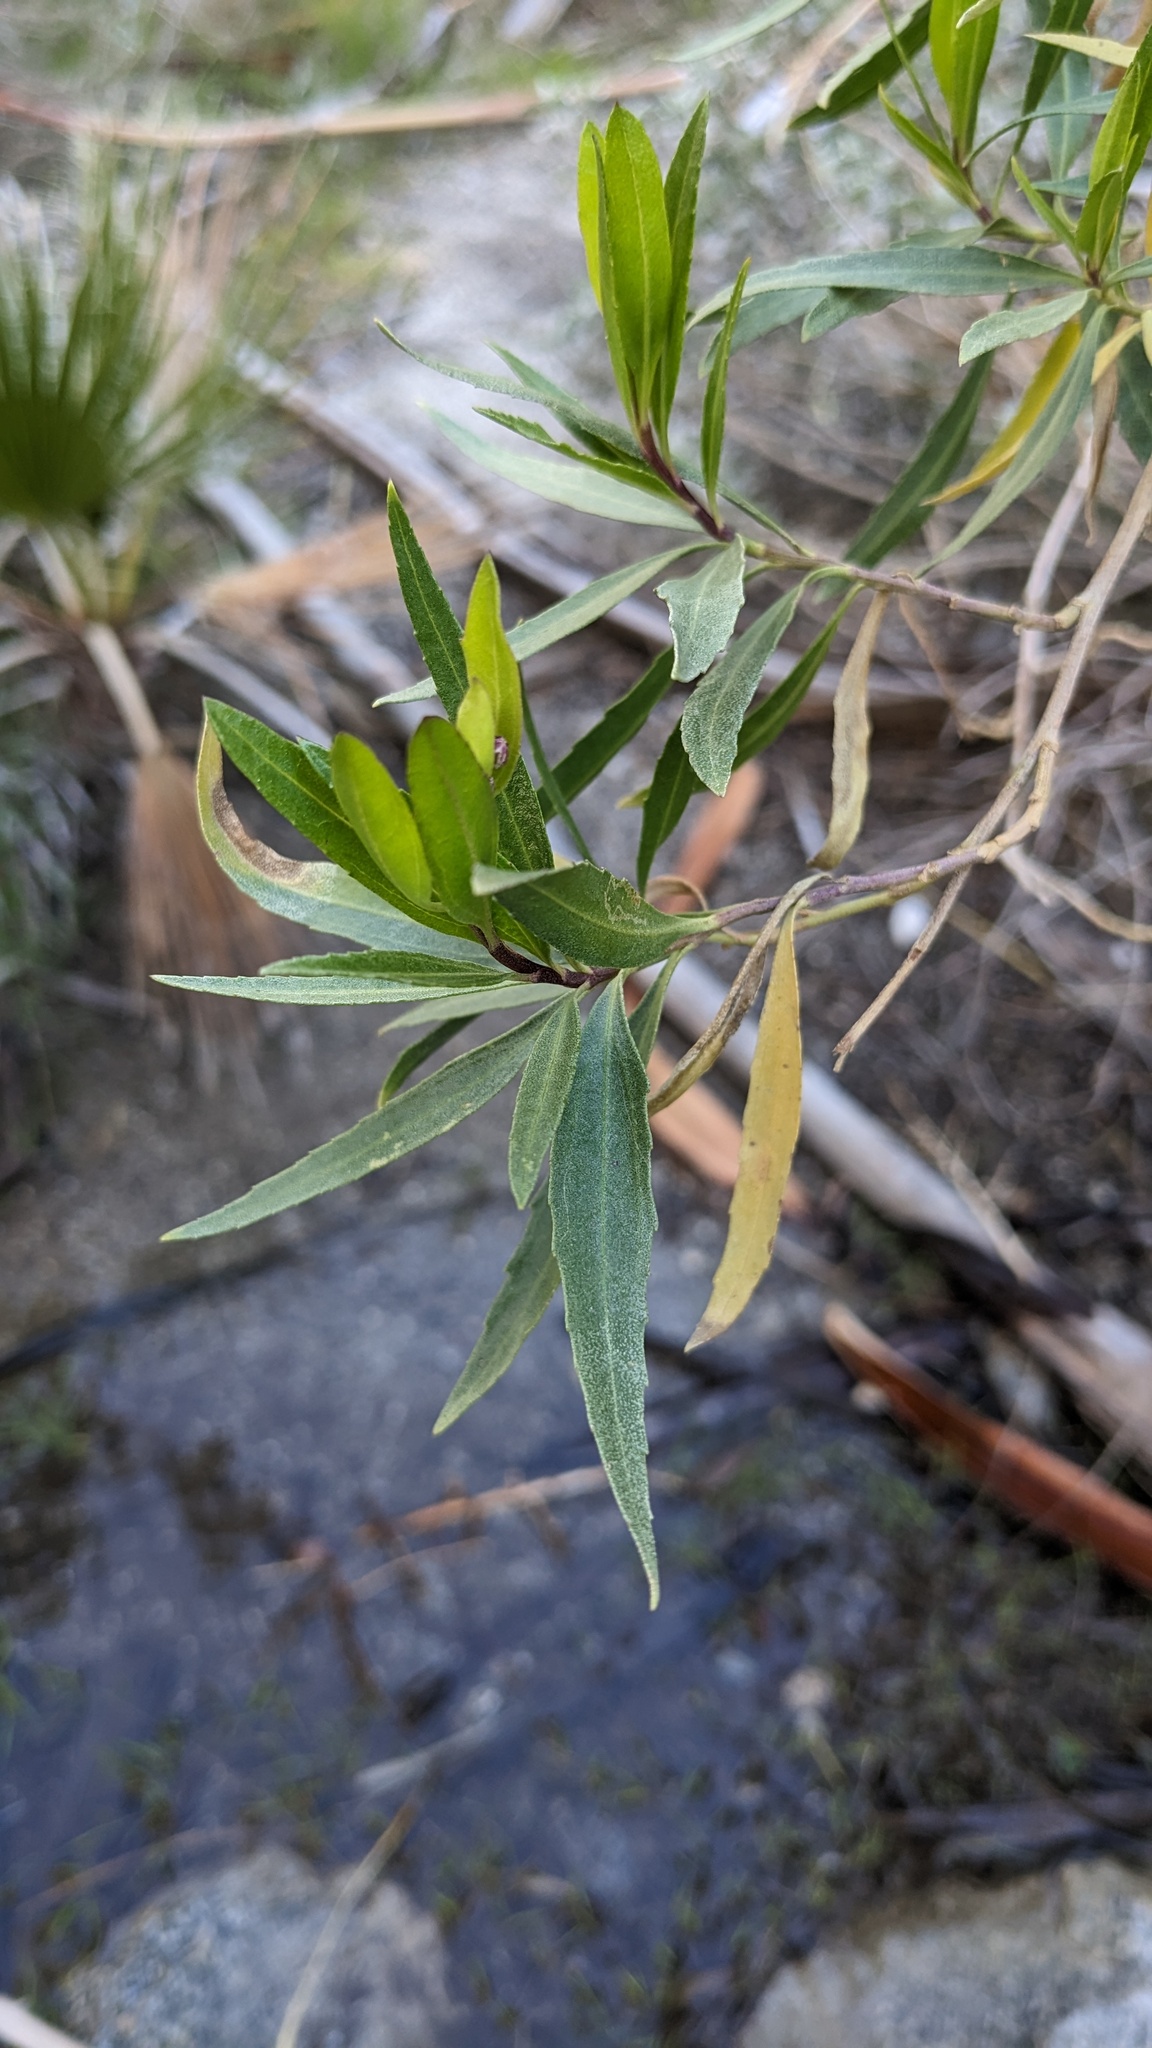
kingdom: Plantae
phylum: Tracheophyta
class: Magnoliopsida
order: Asterales
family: Asteraceae
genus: Baccharis
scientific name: Baccharis salicifolia
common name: Sticky baccharis
